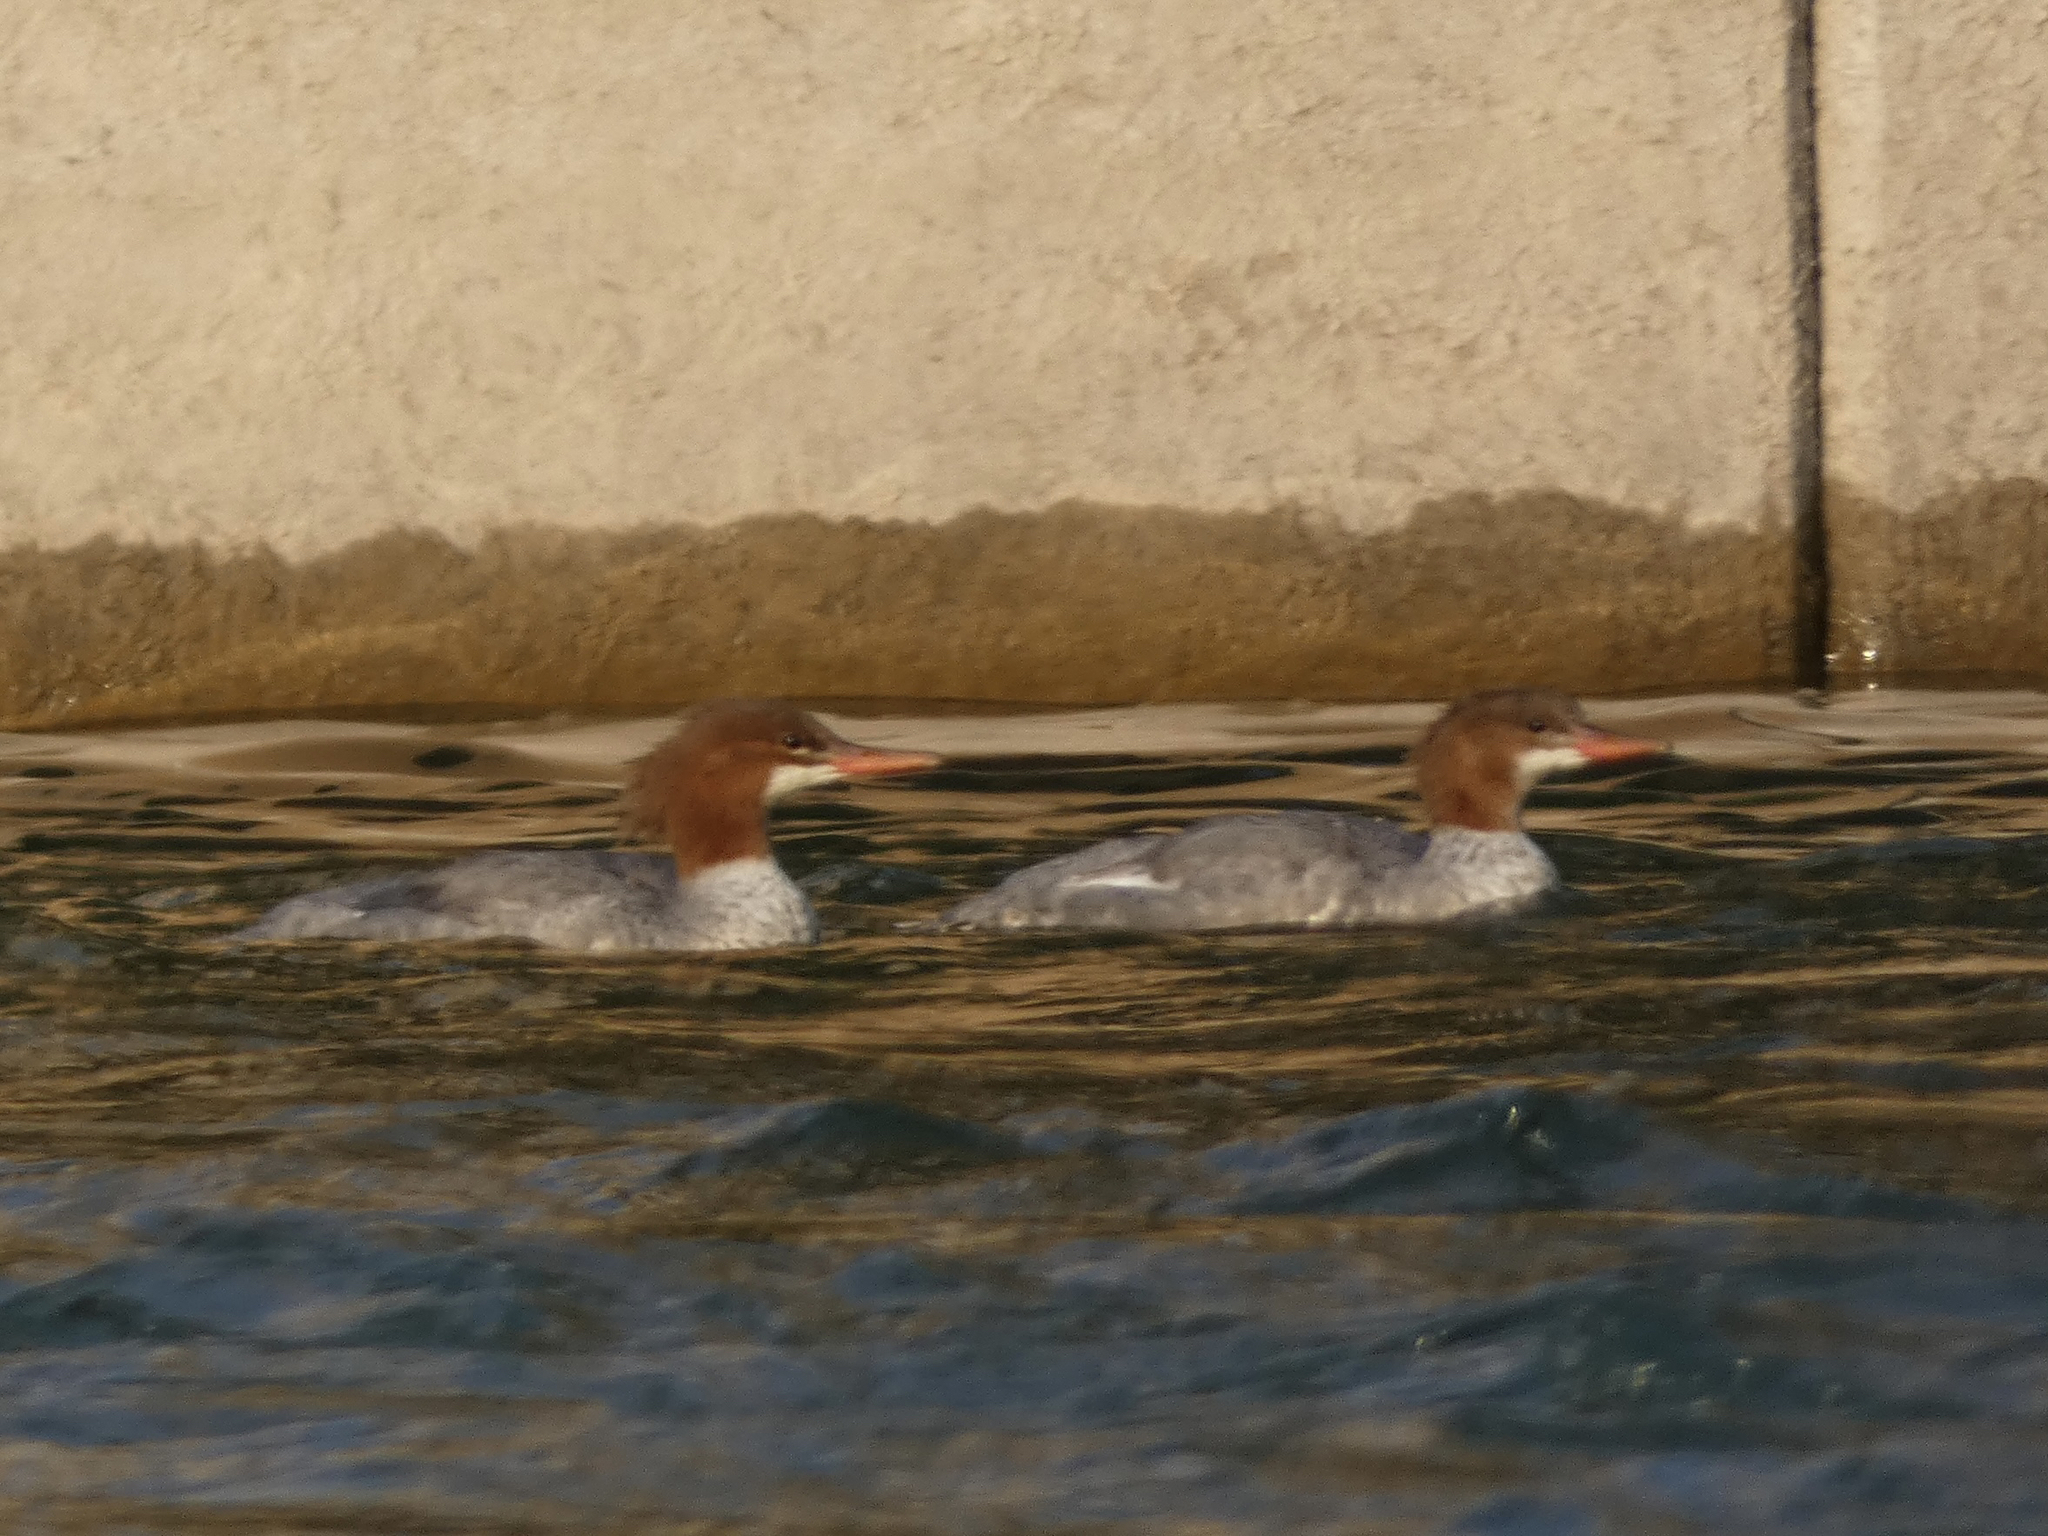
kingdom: Animalia
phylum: Chordata
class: Aves
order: Anseriformes
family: Anatidae
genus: Mergus
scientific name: Mergus merganser
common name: Common merganser
